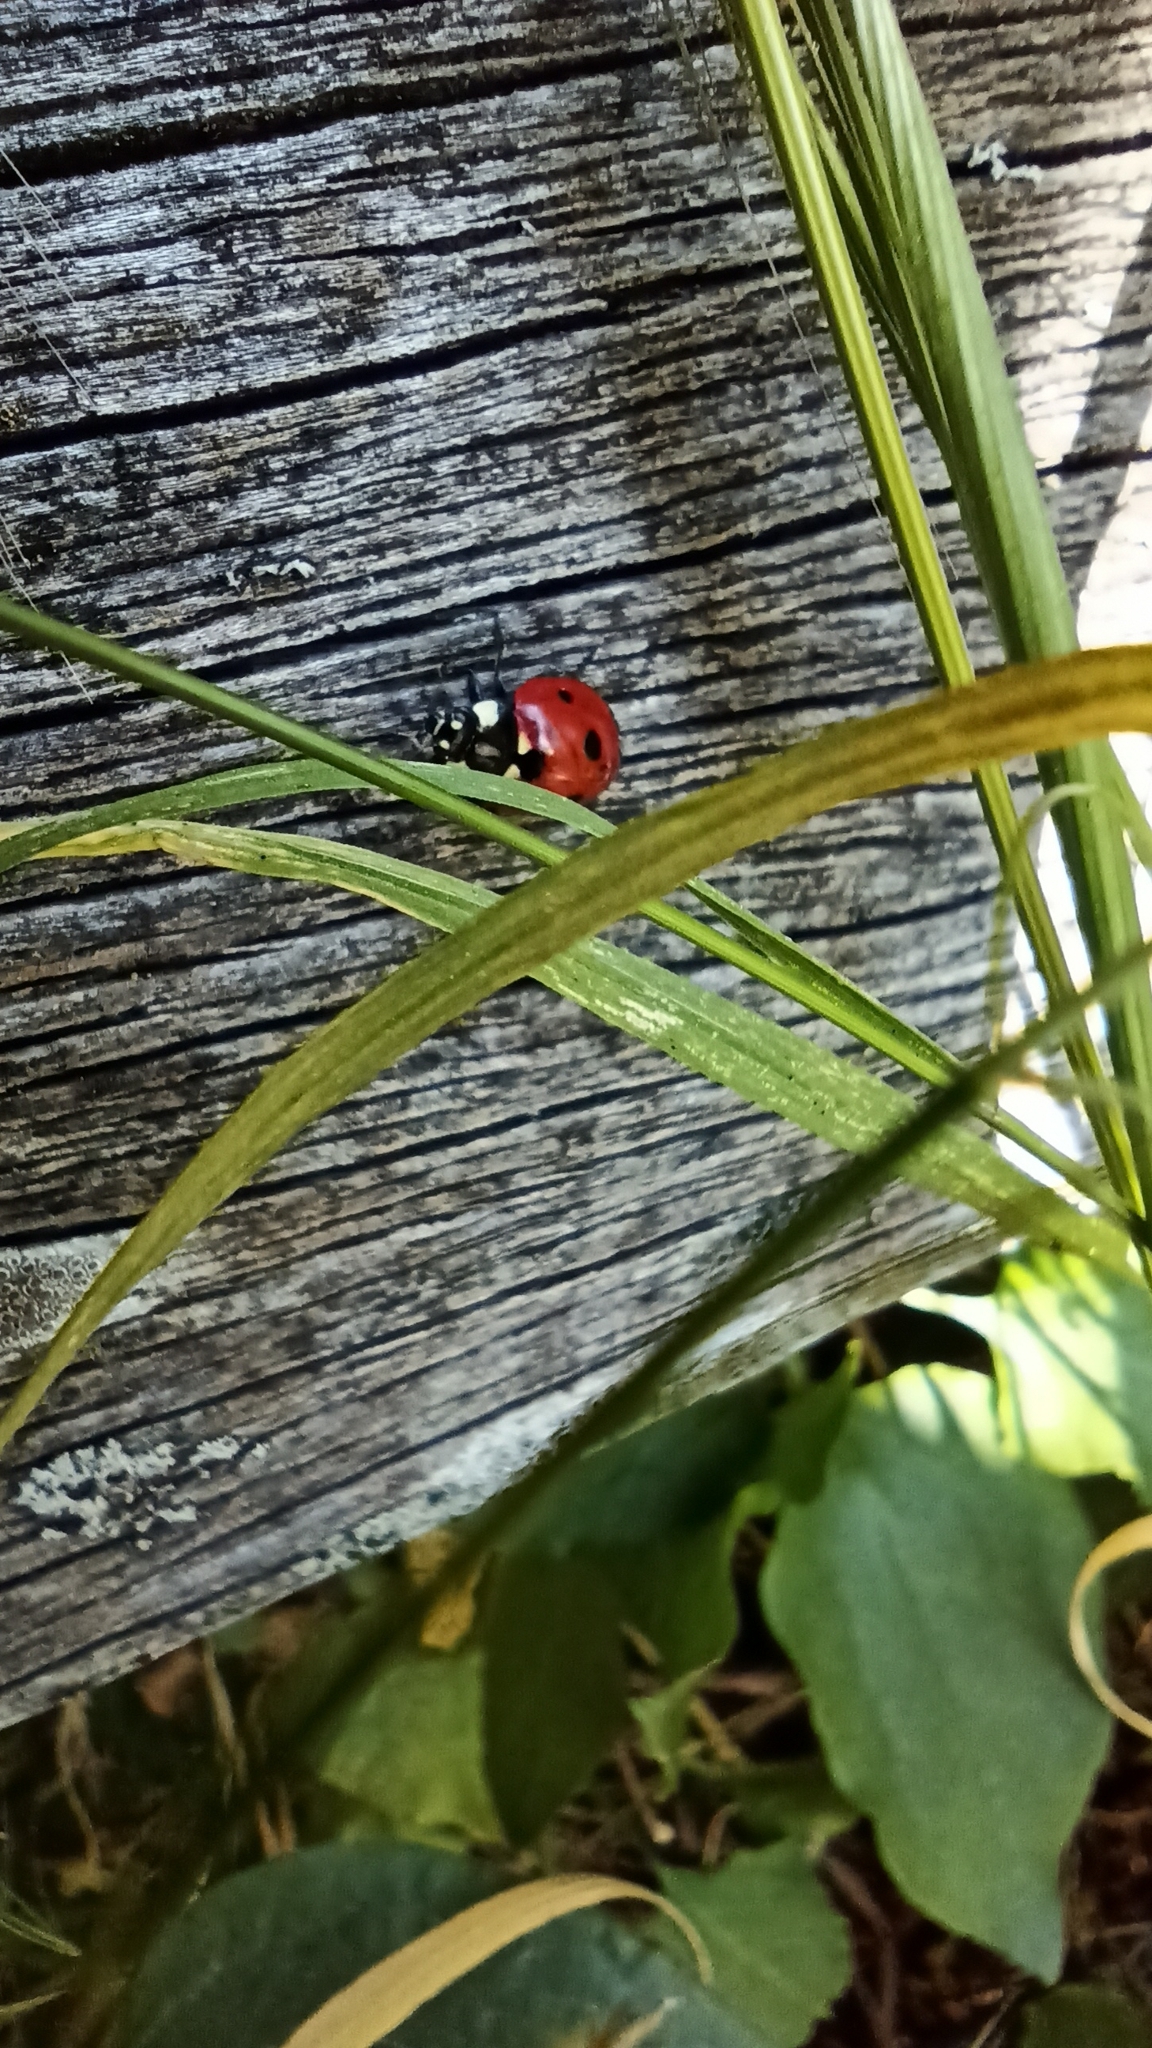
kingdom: Animalia
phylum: Arthropoda
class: Insecta
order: Coleoptera
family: Coccinellidae
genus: Coccinella
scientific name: Coccinella septempunctata
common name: Sevenspotted lady beetle
